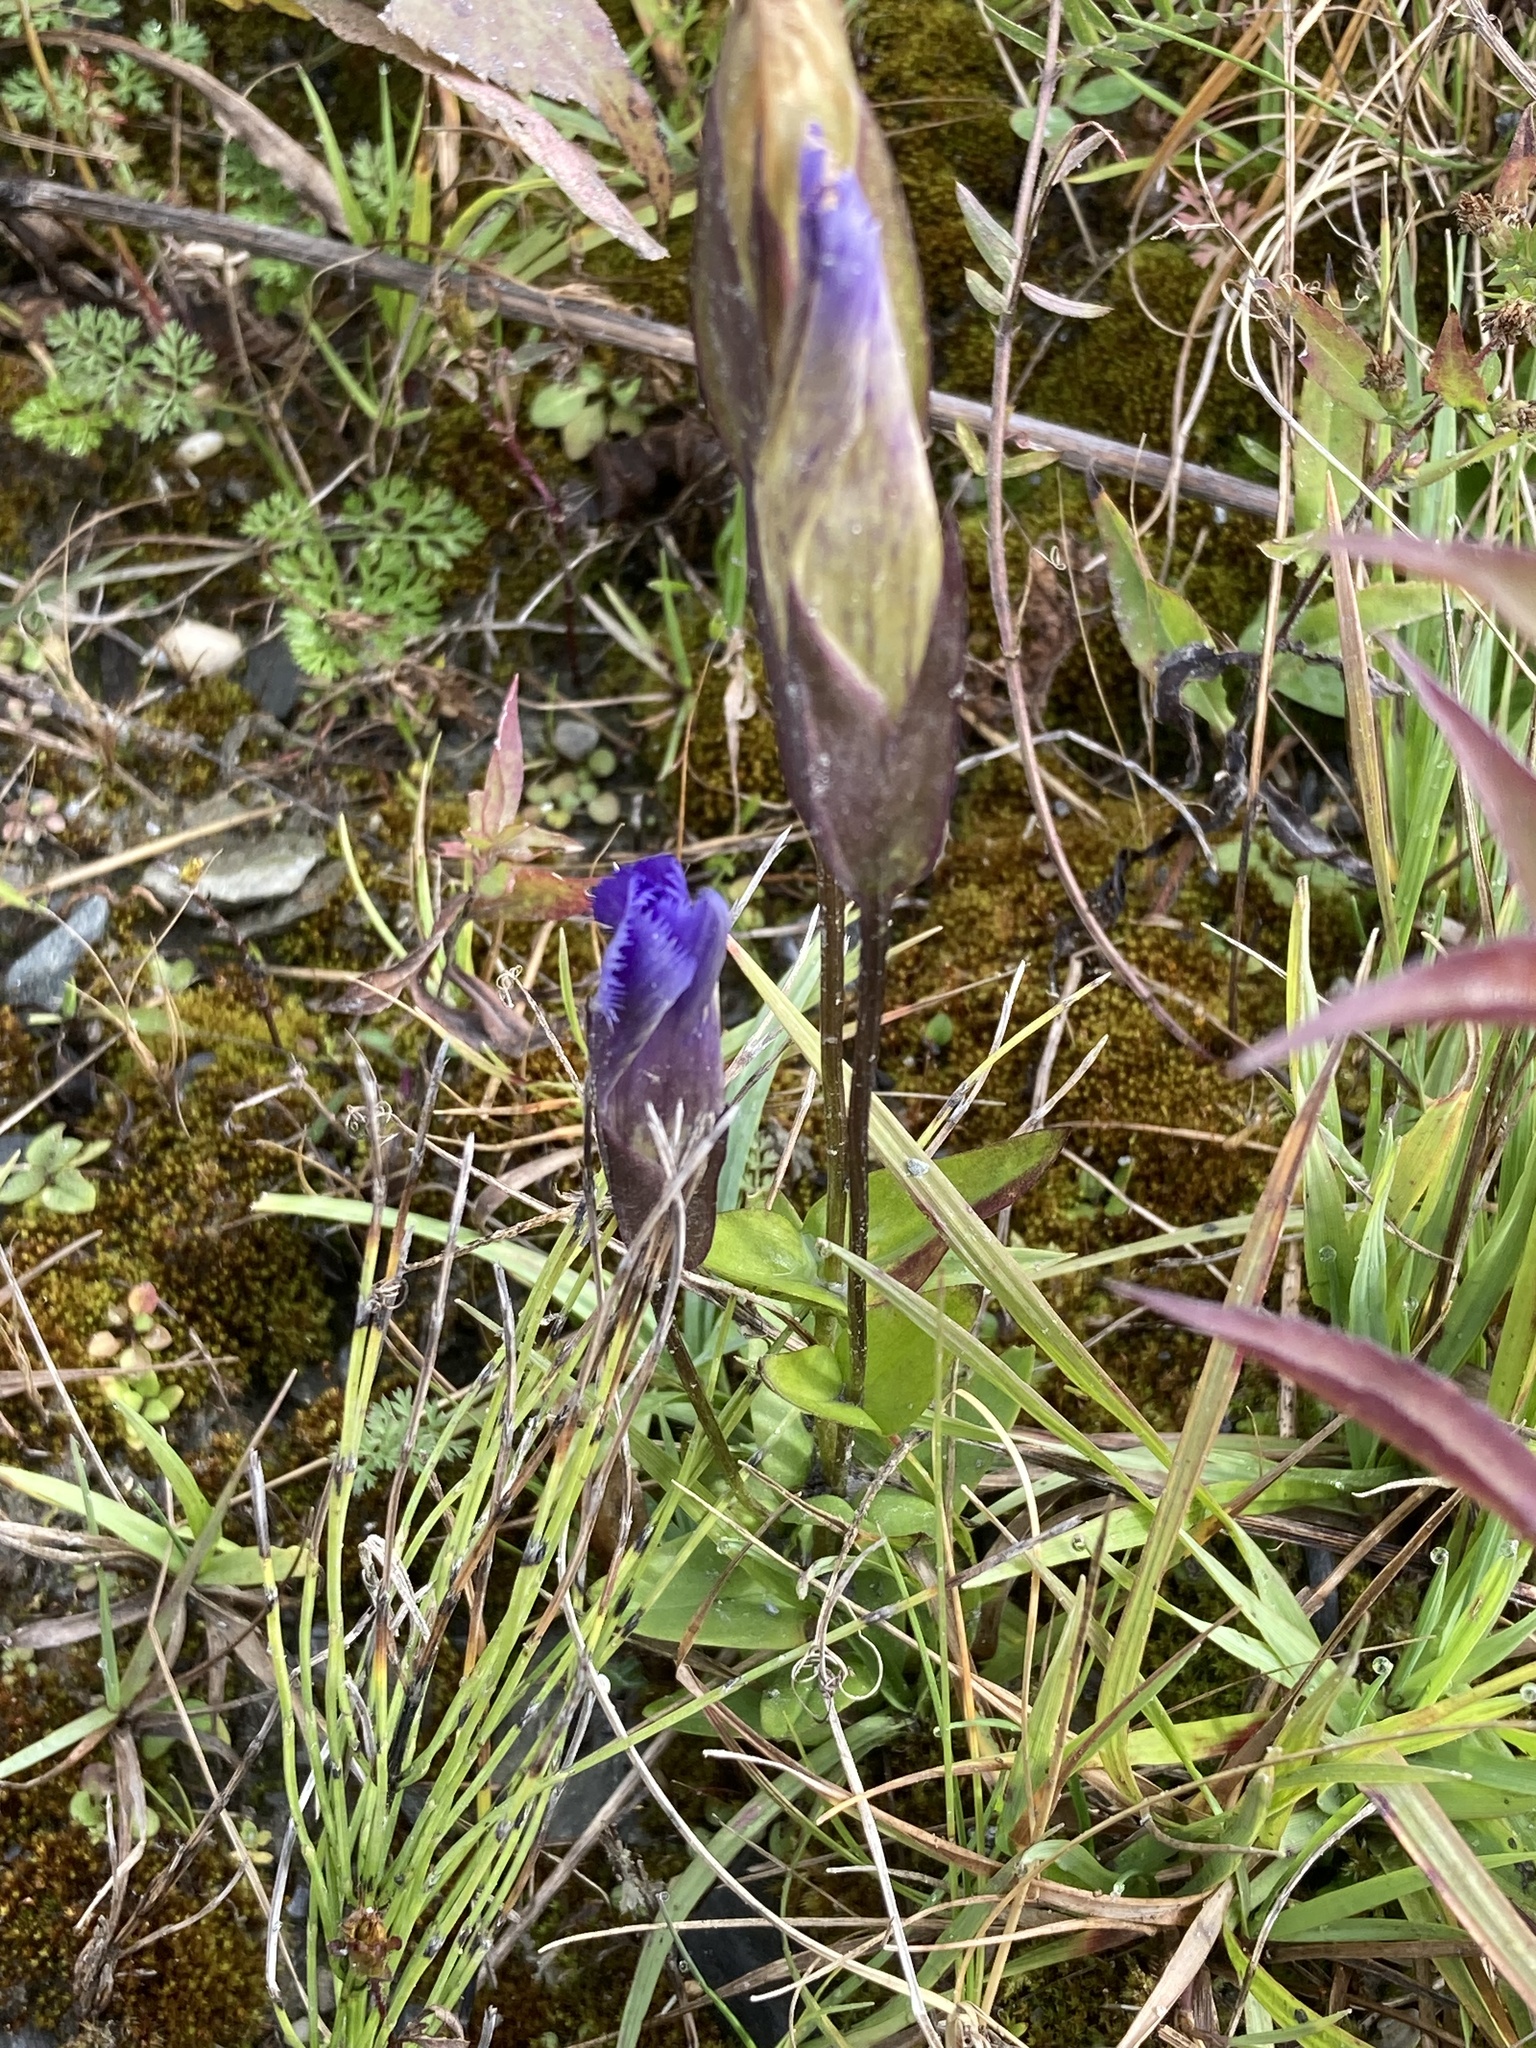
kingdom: Plantae
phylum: Tracheophyta
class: Magnoliopsida
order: Gentianales
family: Gentianaceae
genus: Gentianopsis
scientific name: Gentianopsis crinita
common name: Fringed-gentian
